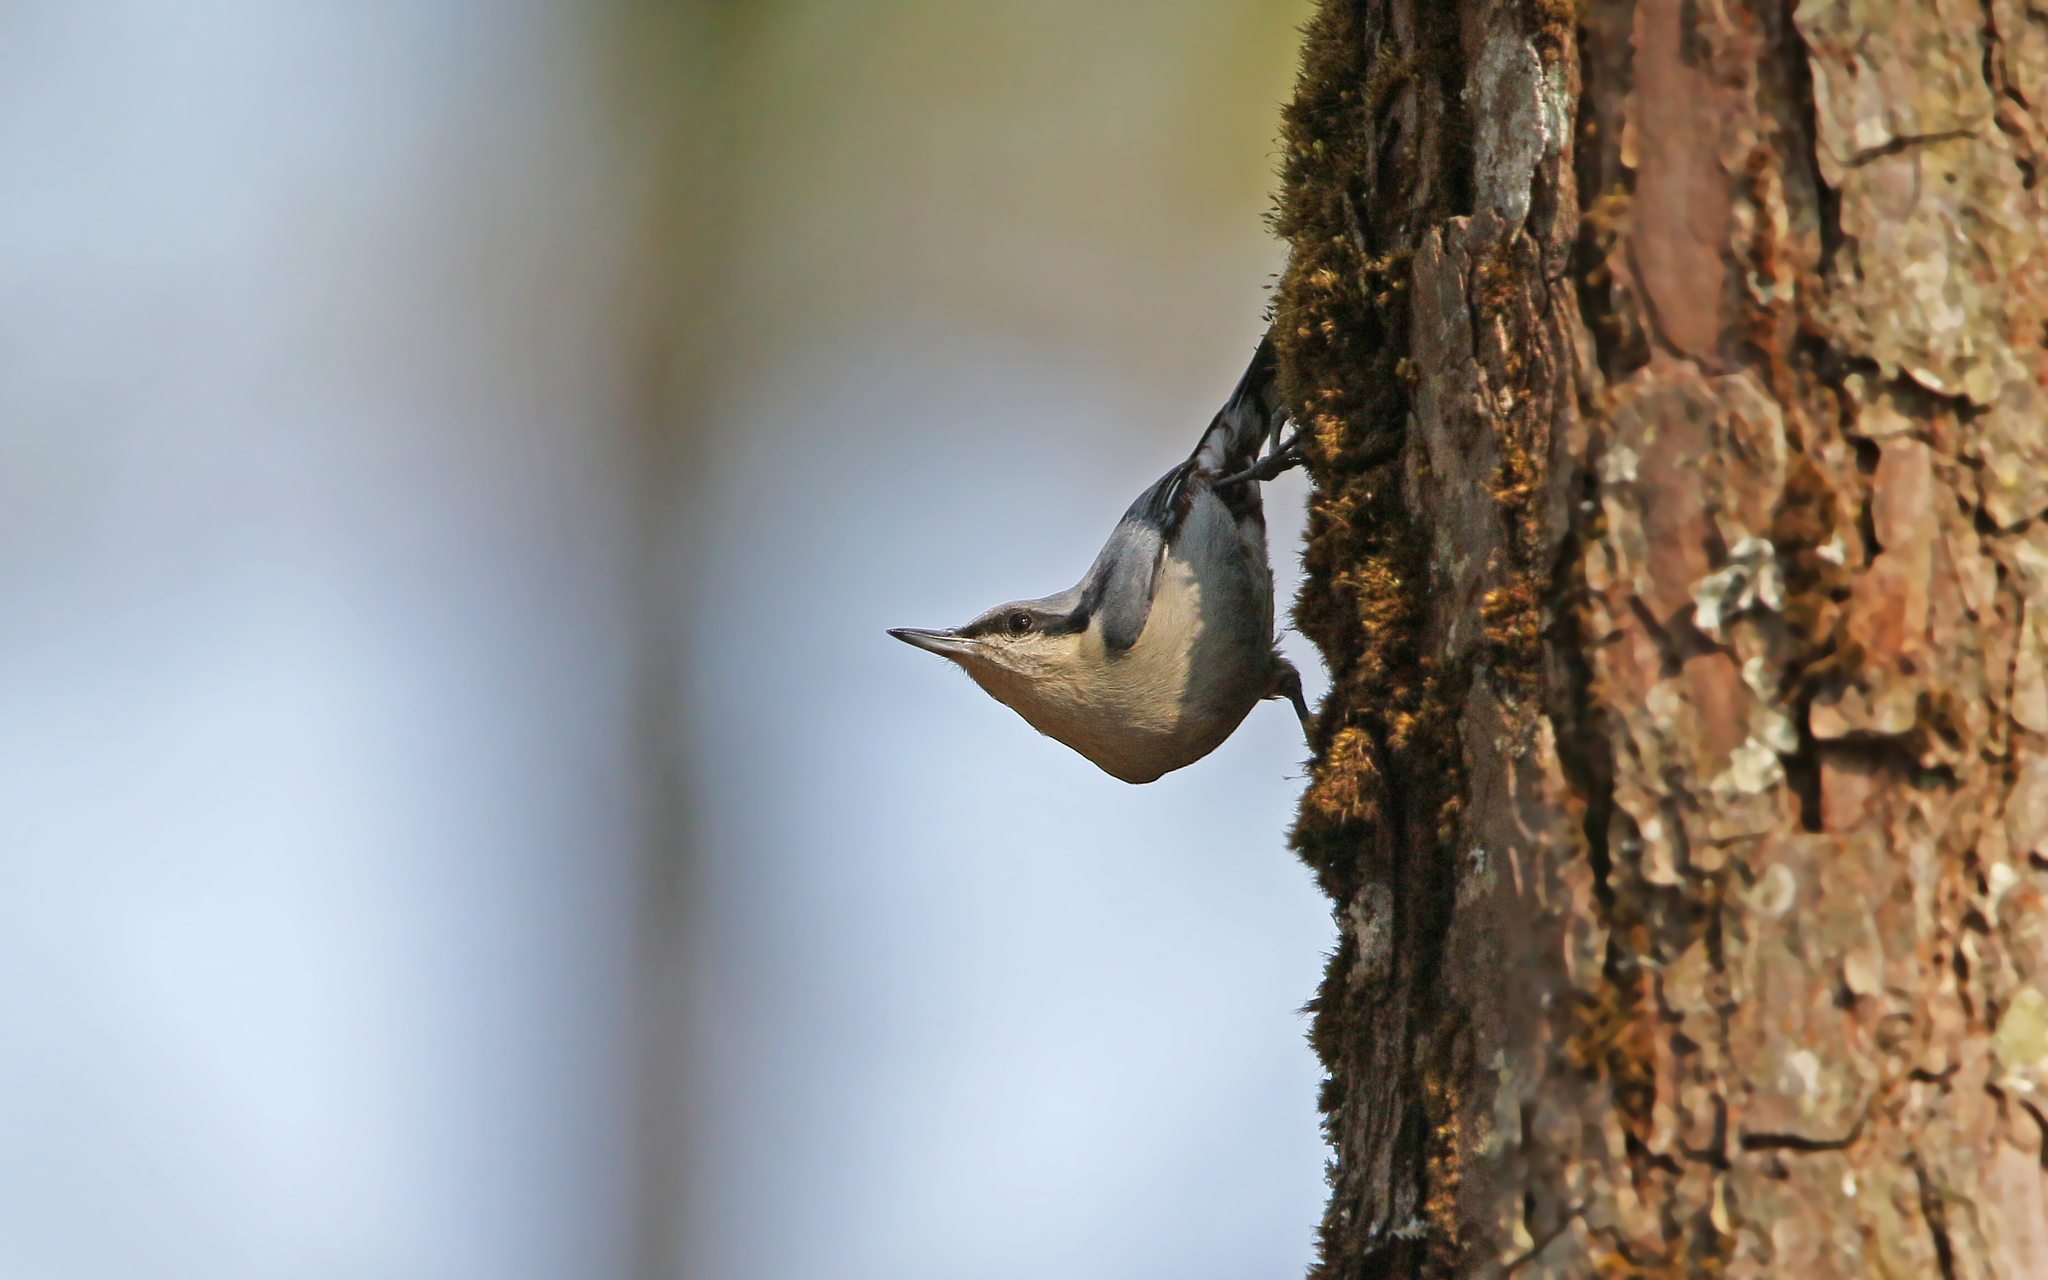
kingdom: Animalia
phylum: Chordata
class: Aves
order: Passeriformes
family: Sittidae
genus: Sitta
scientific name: Sitta nagaensis
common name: Chestnut-vented nuthatch
